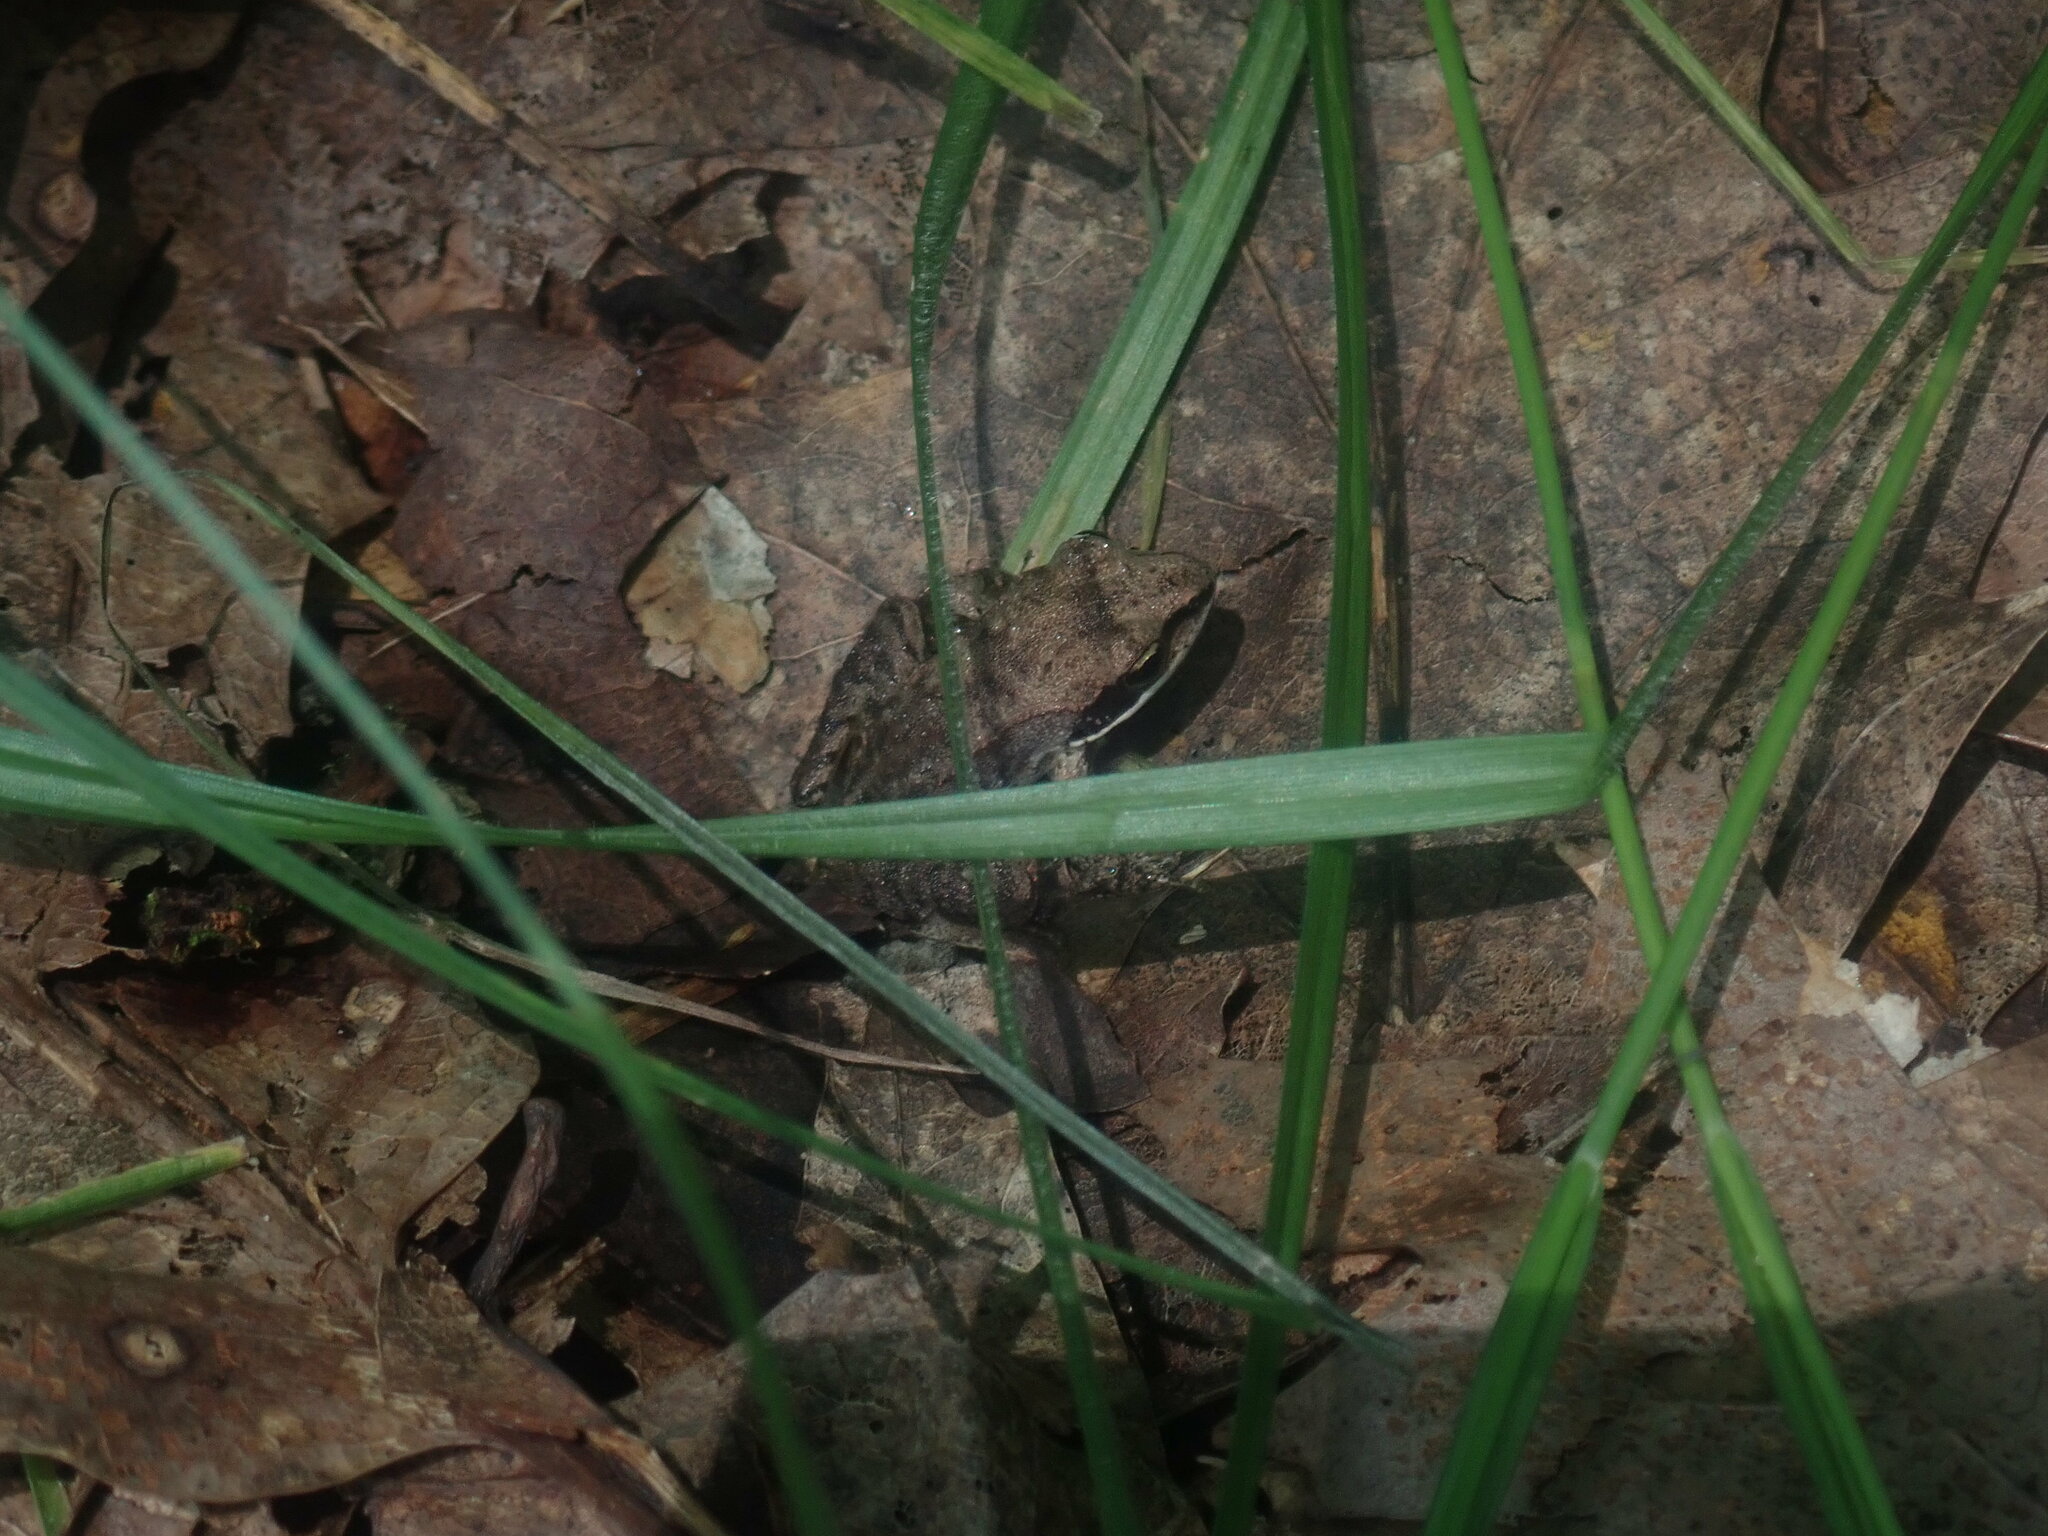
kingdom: Animalia
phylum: Chordata
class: Amphibia
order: Anura
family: Ranidae
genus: Lithobates
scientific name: Lithobates sylvaticus
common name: Wood frog
